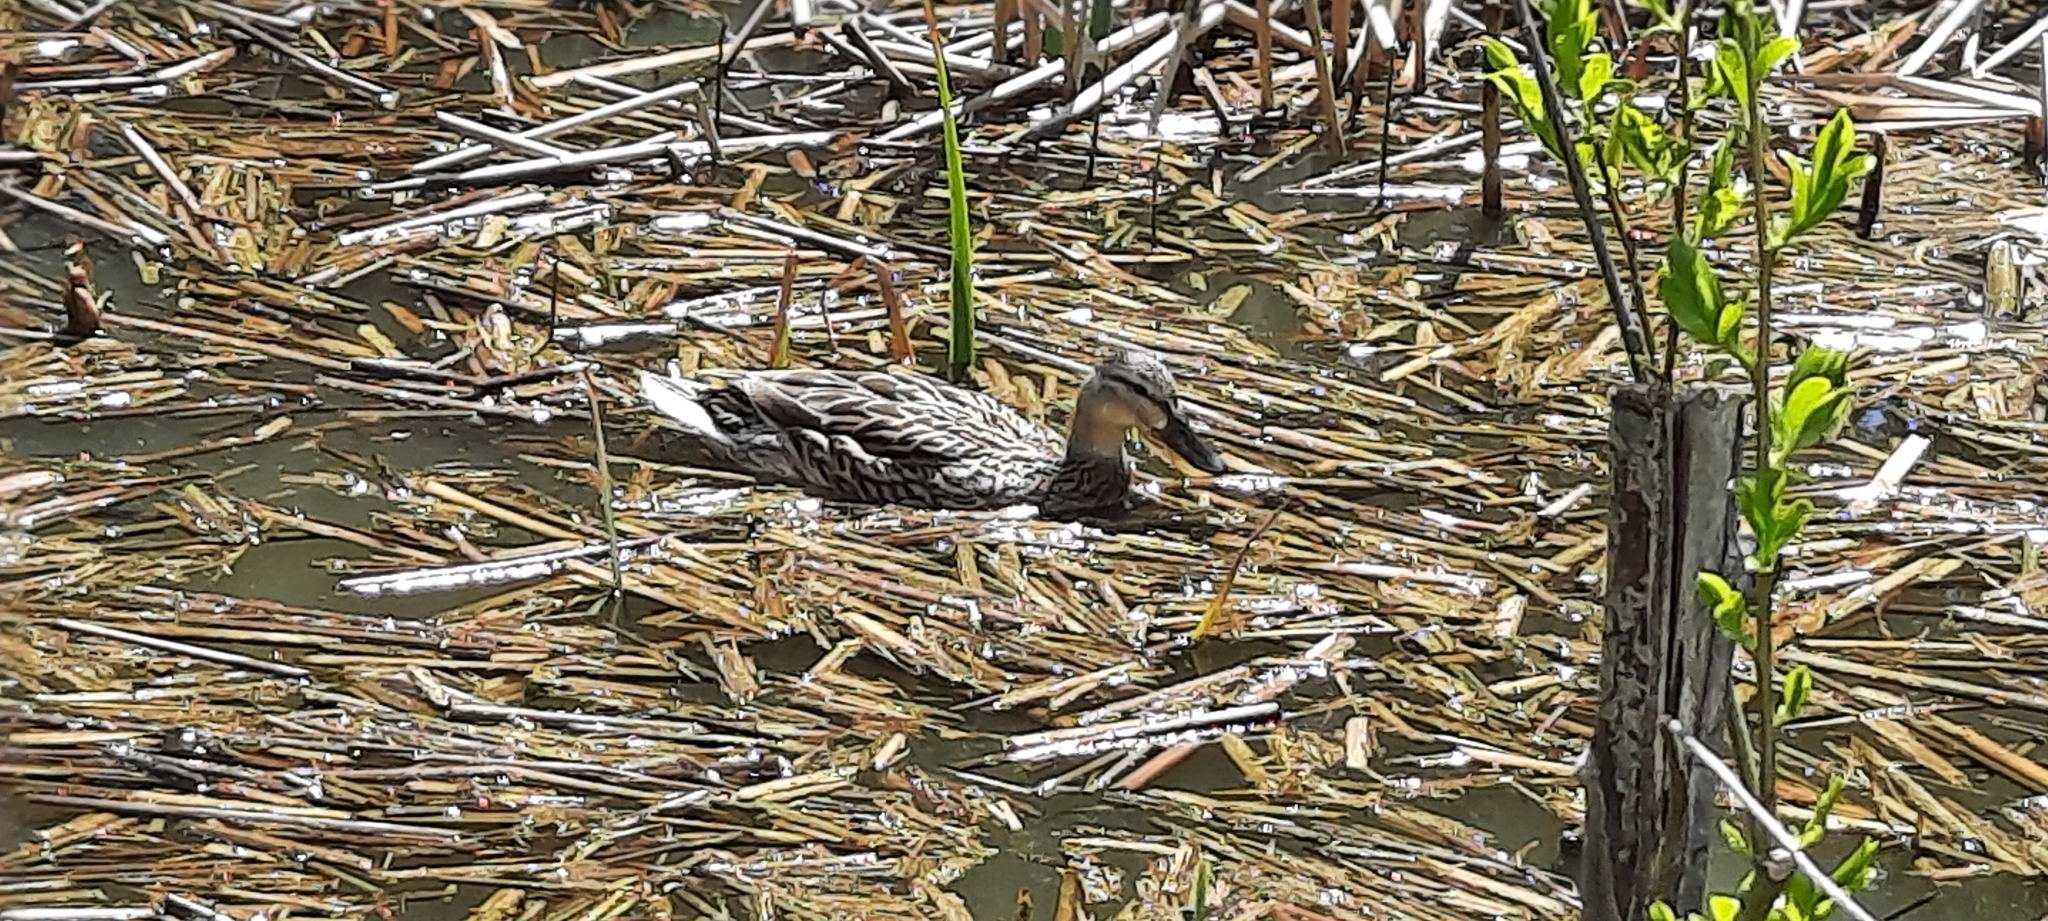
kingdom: Animalia
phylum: Chordata
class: Aves
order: Anseriformes
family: Anatidae
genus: Anas
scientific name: Anas platyrhynchos
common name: Mallard
